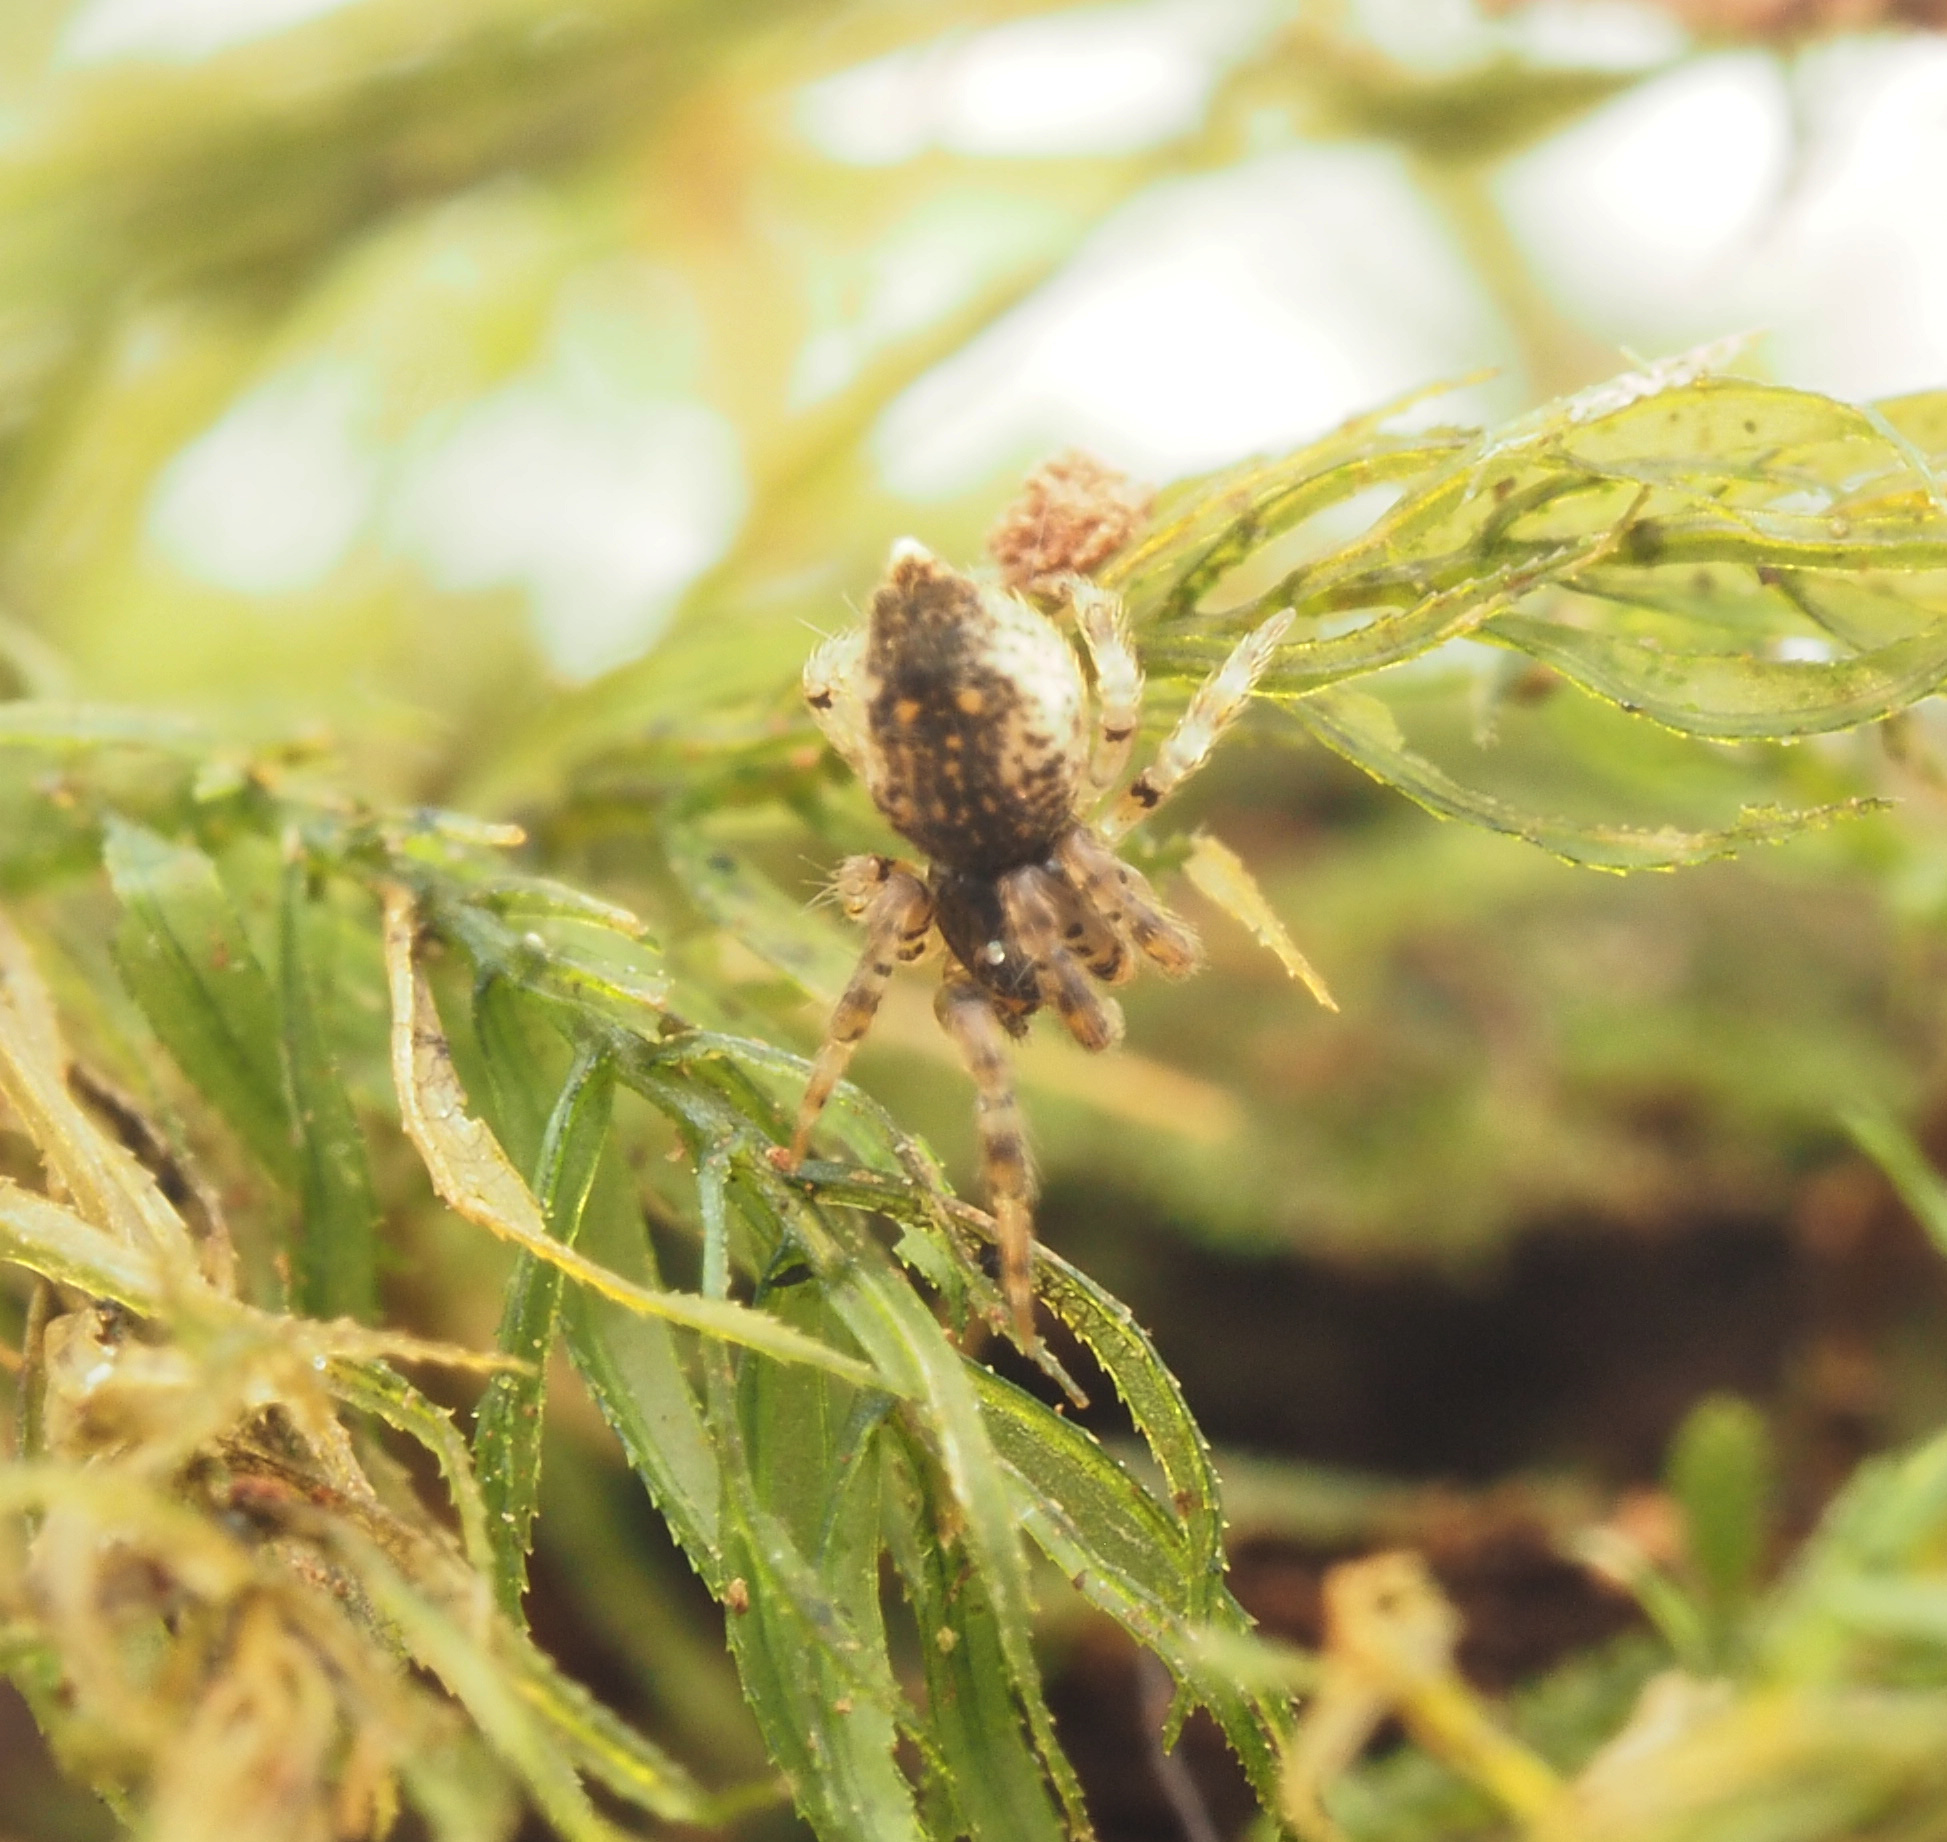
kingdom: Animalia
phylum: Arthropoda
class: Arachnida
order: Araneae
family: Mysmenidae
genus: Trogloneta
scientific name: Trogloneta
